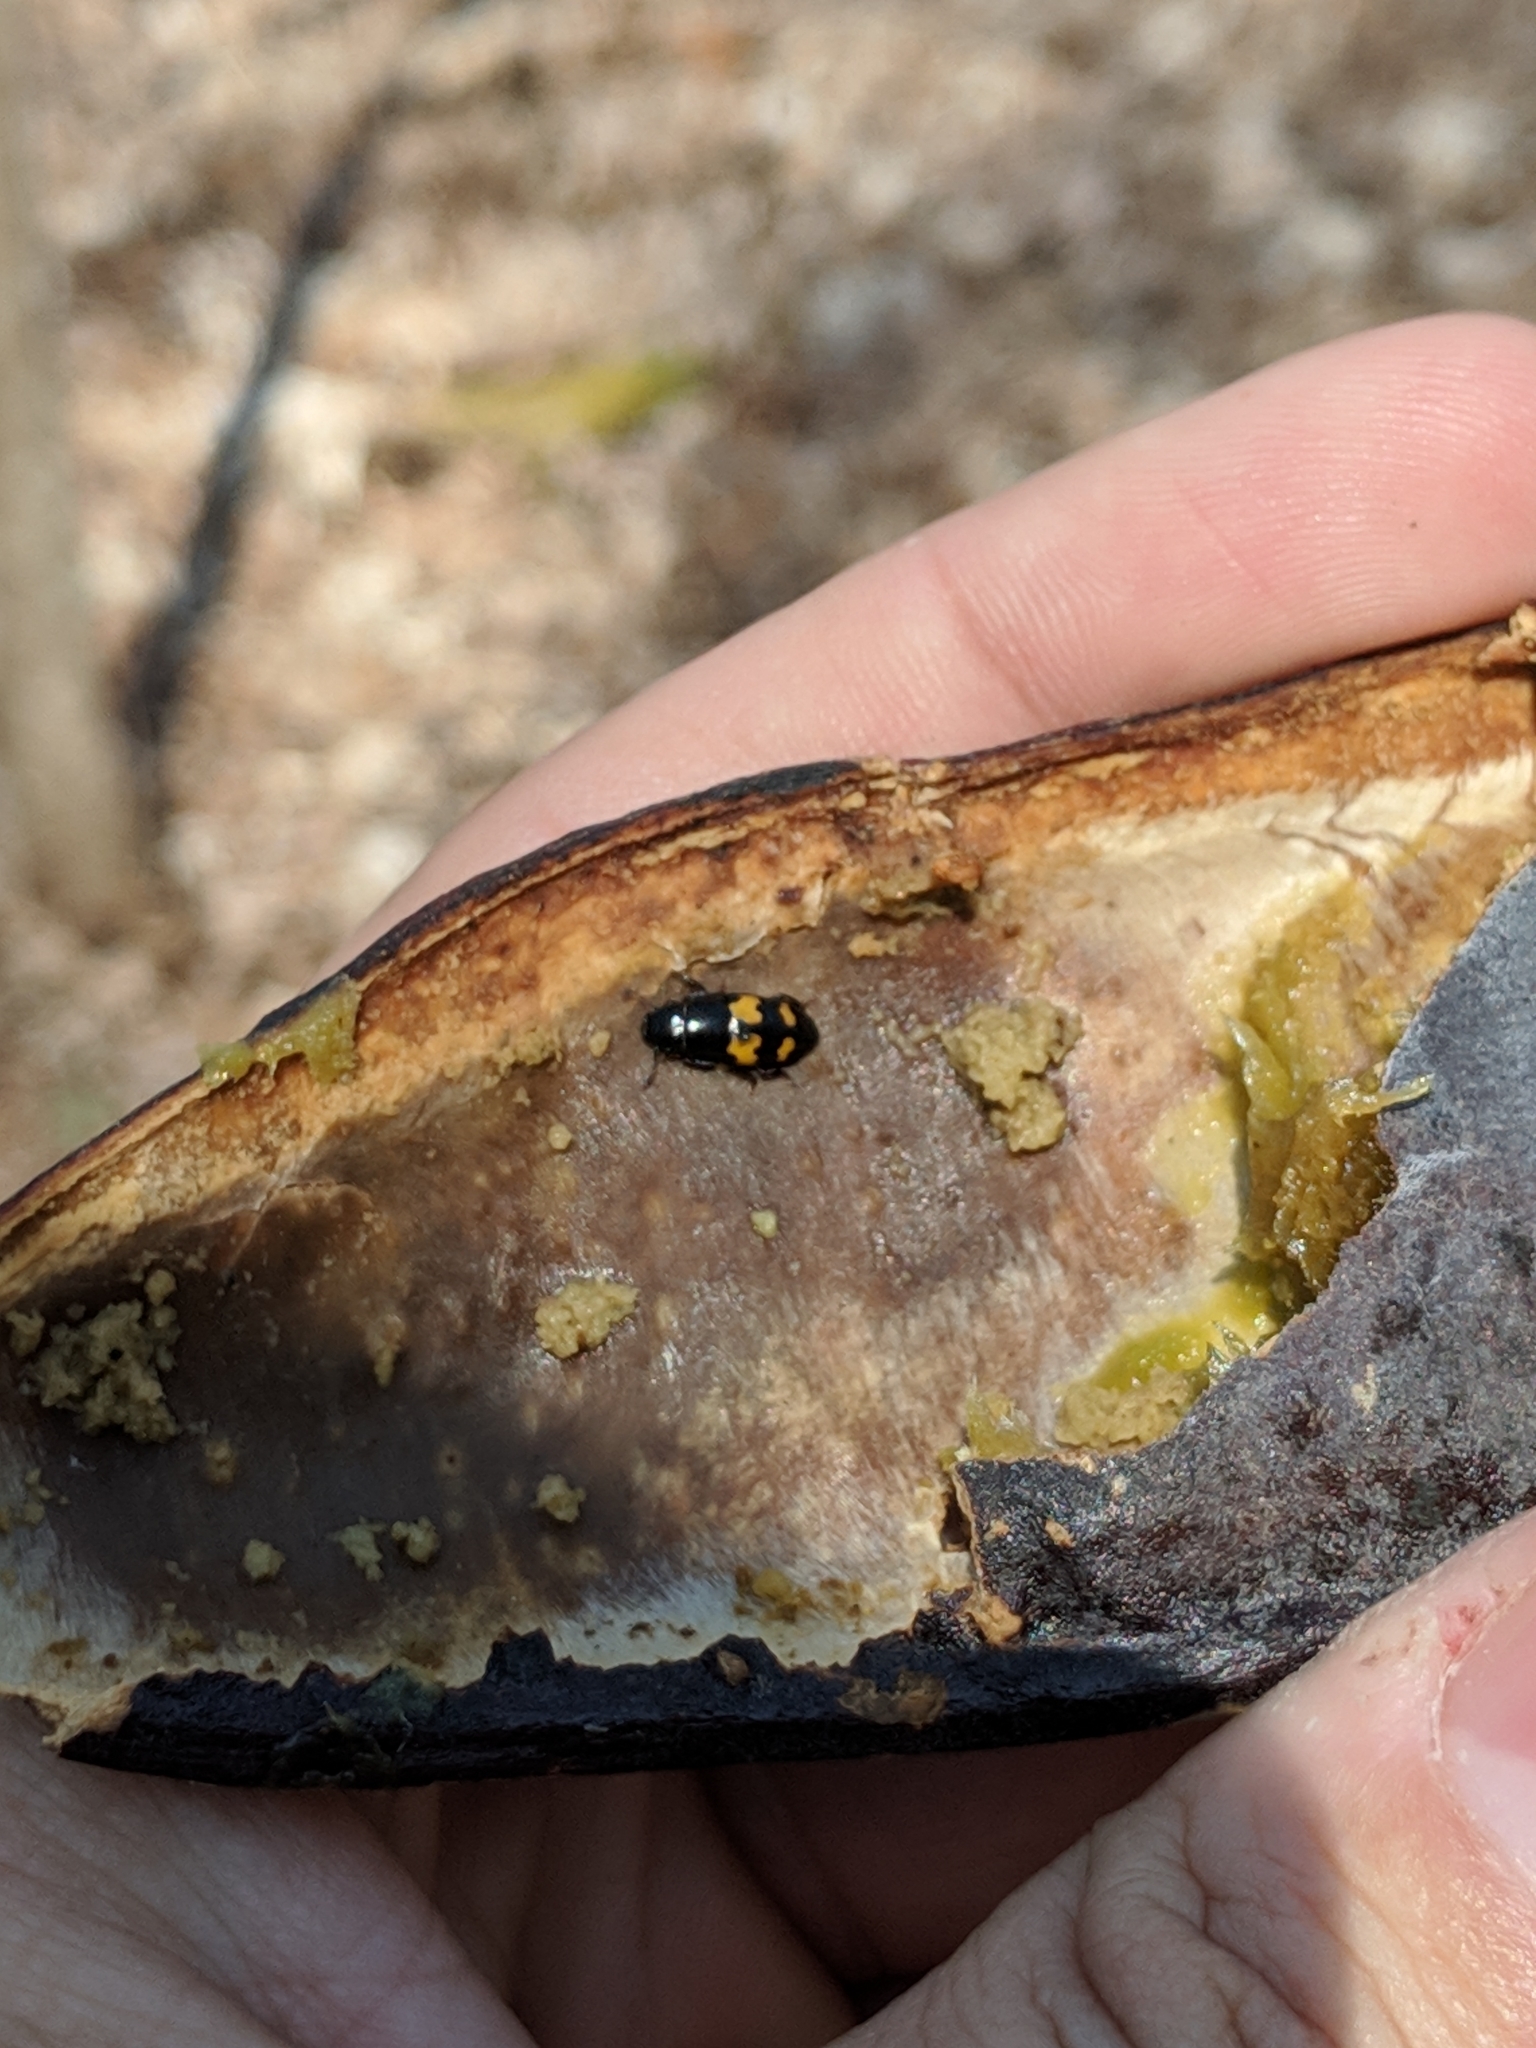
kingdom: Animalia
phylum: Arthropoda
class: Insecta
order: Coleoptera
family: Nitidulidae
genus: Glischrochilus
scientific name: Glischrochilus fasciatus
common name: Picnic beetle
